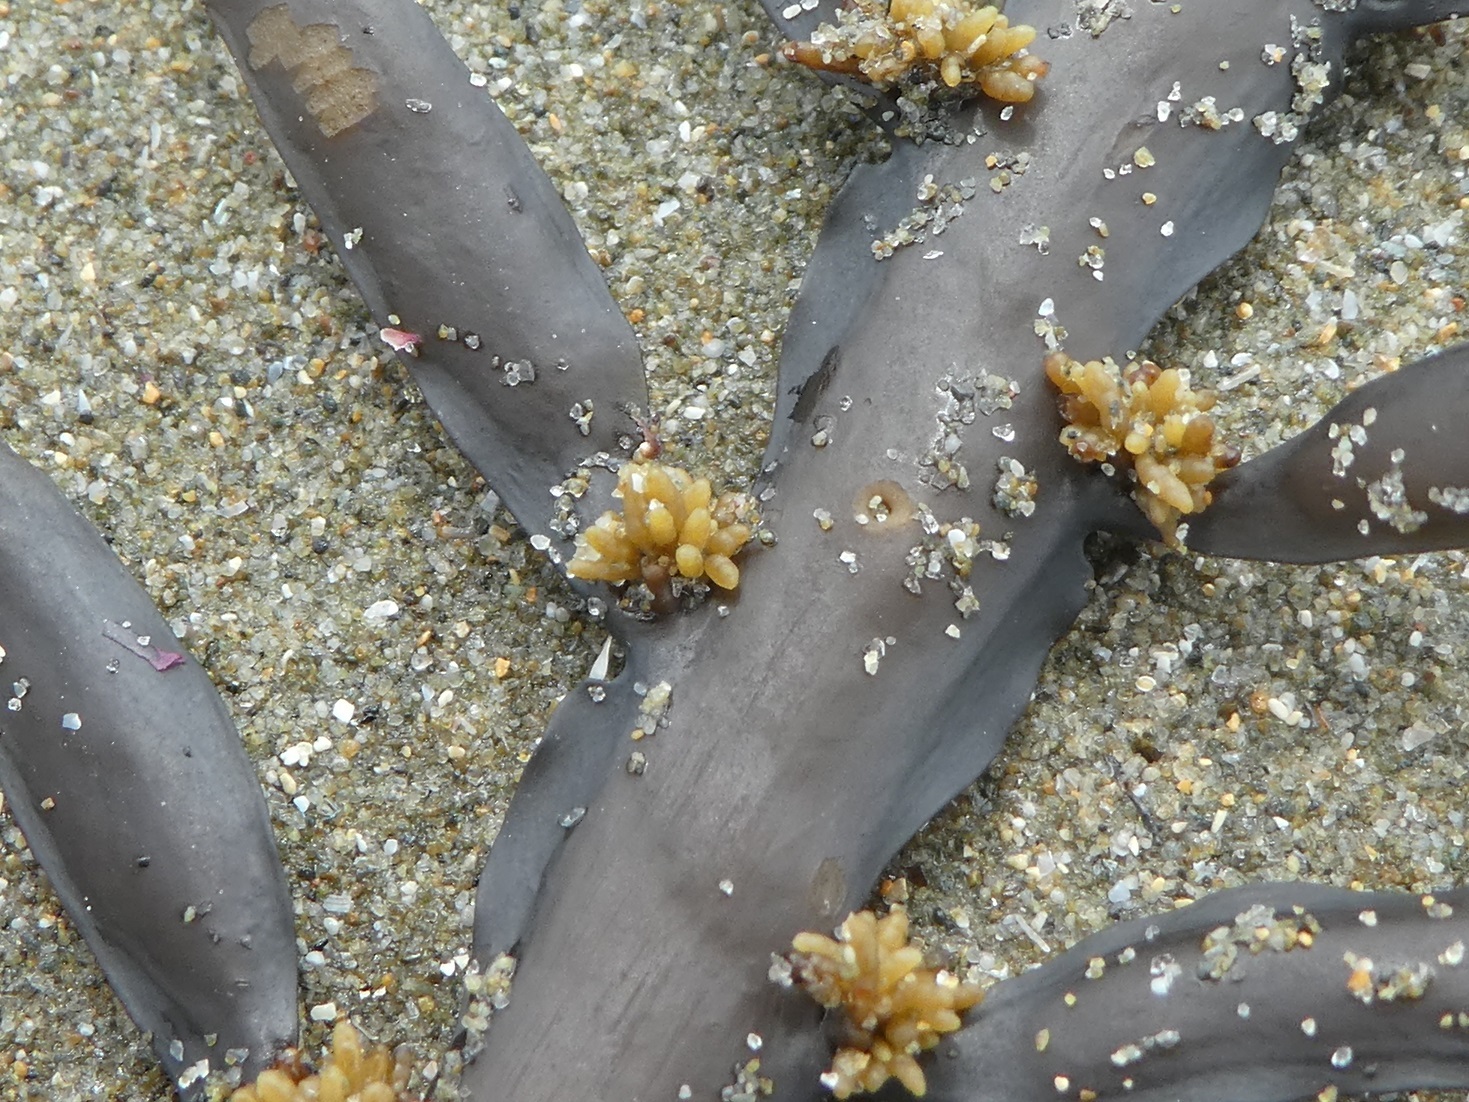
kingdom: Chromista
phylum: Ochrophyta
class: Phaeophyceae
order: Fucales
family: Sargassaceae
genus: Carpophyllum
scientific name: Carpophyllum maschalocarpum
